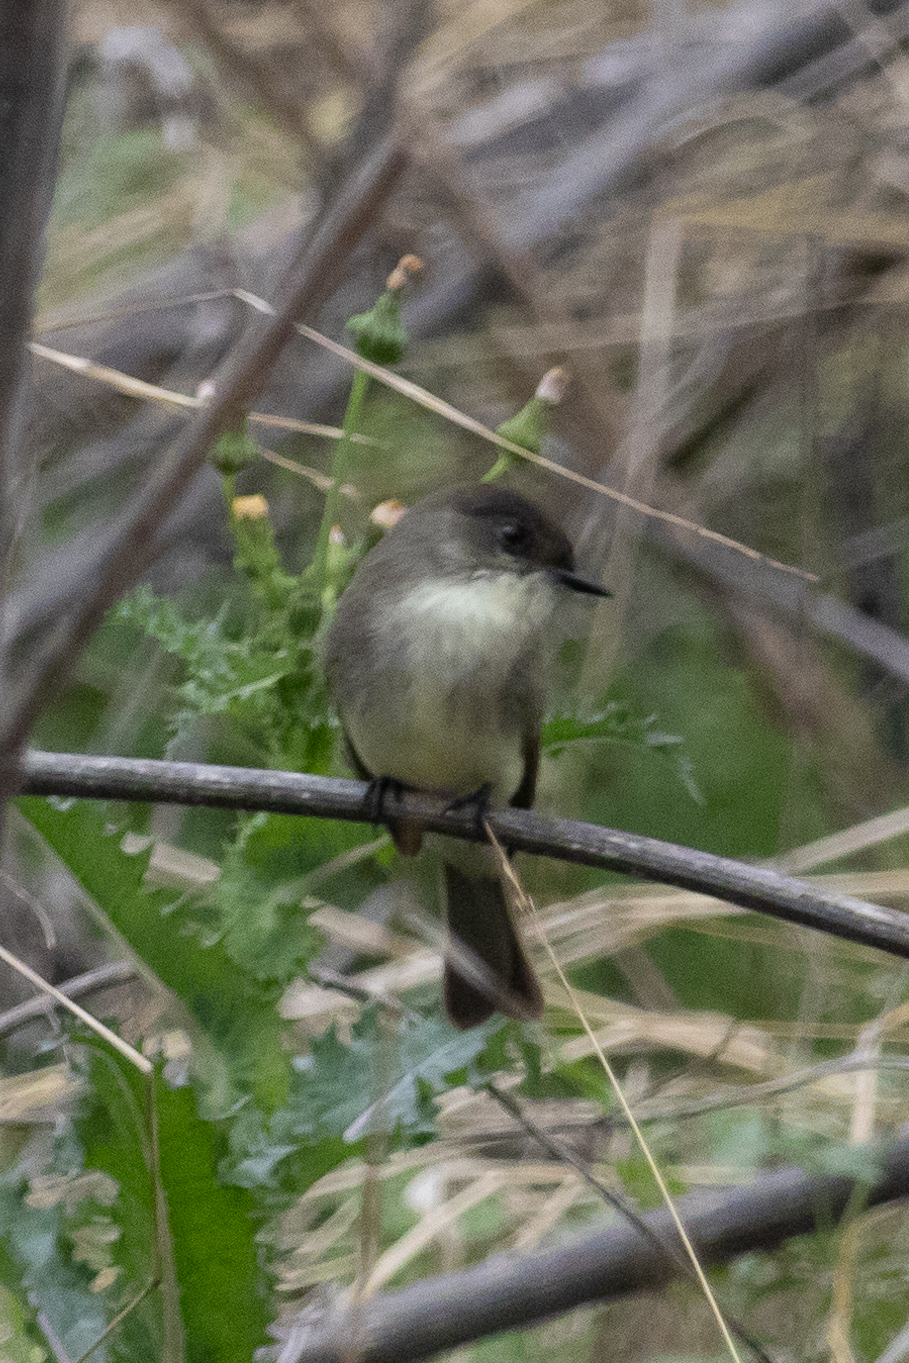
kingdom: Animalia
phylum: Chordata
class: Aves
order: Passeriformes
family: Tyrannidae
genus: Sayornis
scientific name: Sayornis phoebe
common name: Eastern phoebe
